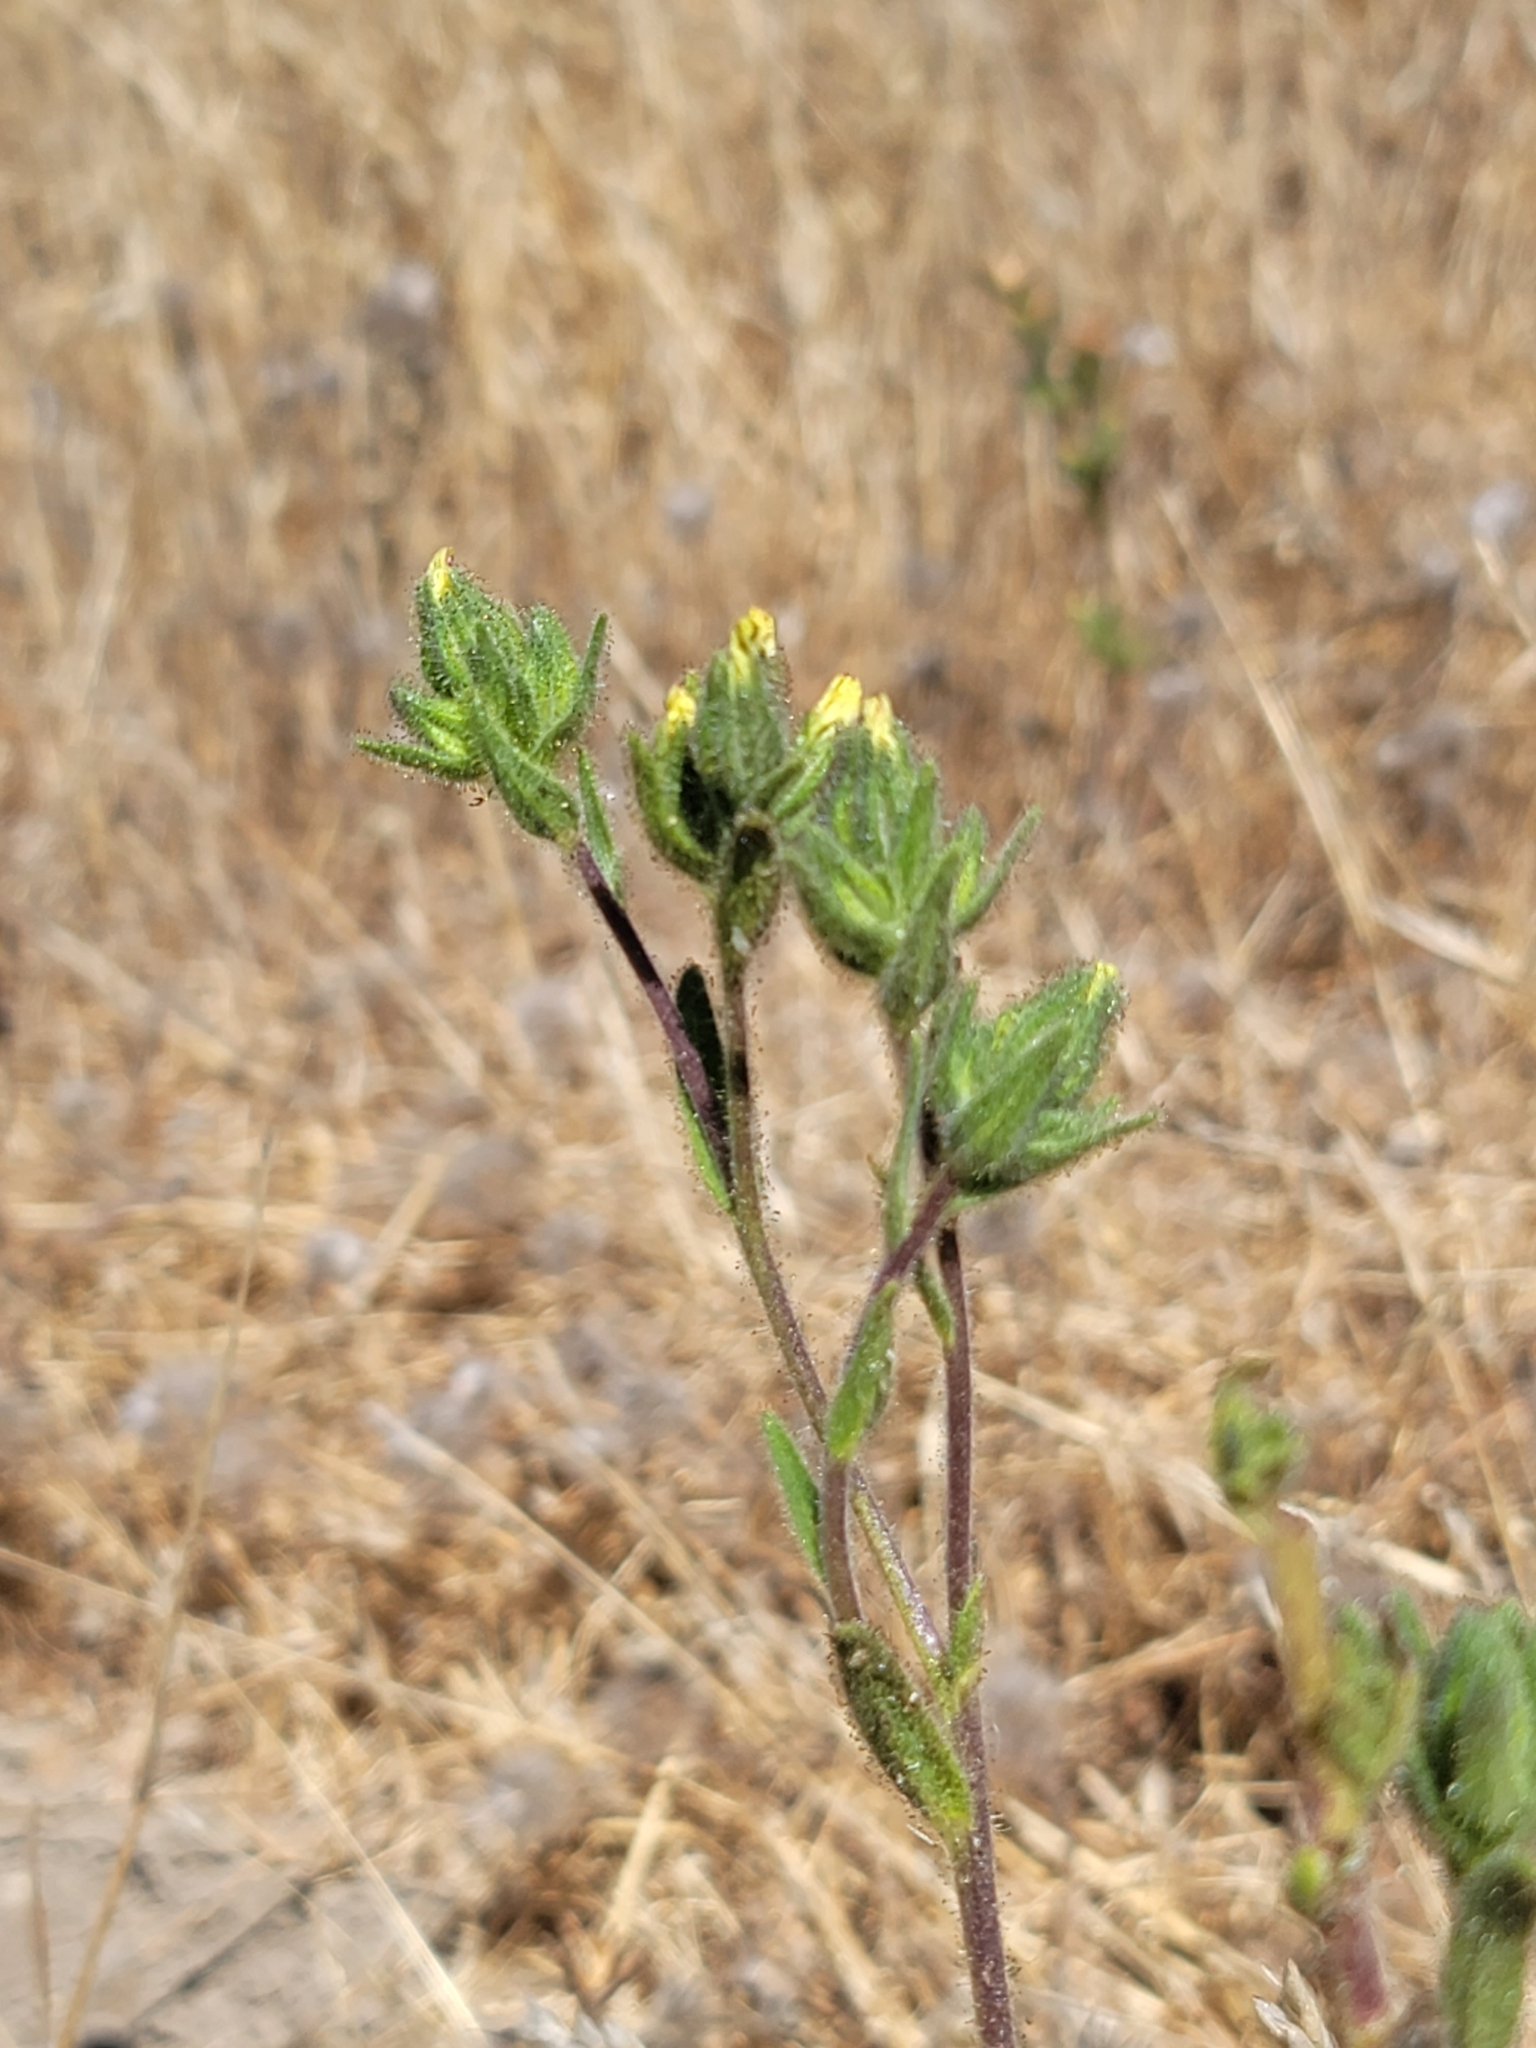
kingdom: Plantae
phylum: Tracheophyta
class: Magnoliopsida
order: Asterales
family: Asteraceae
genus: Madia
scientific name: Madia sativa
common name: Coast tarweed
